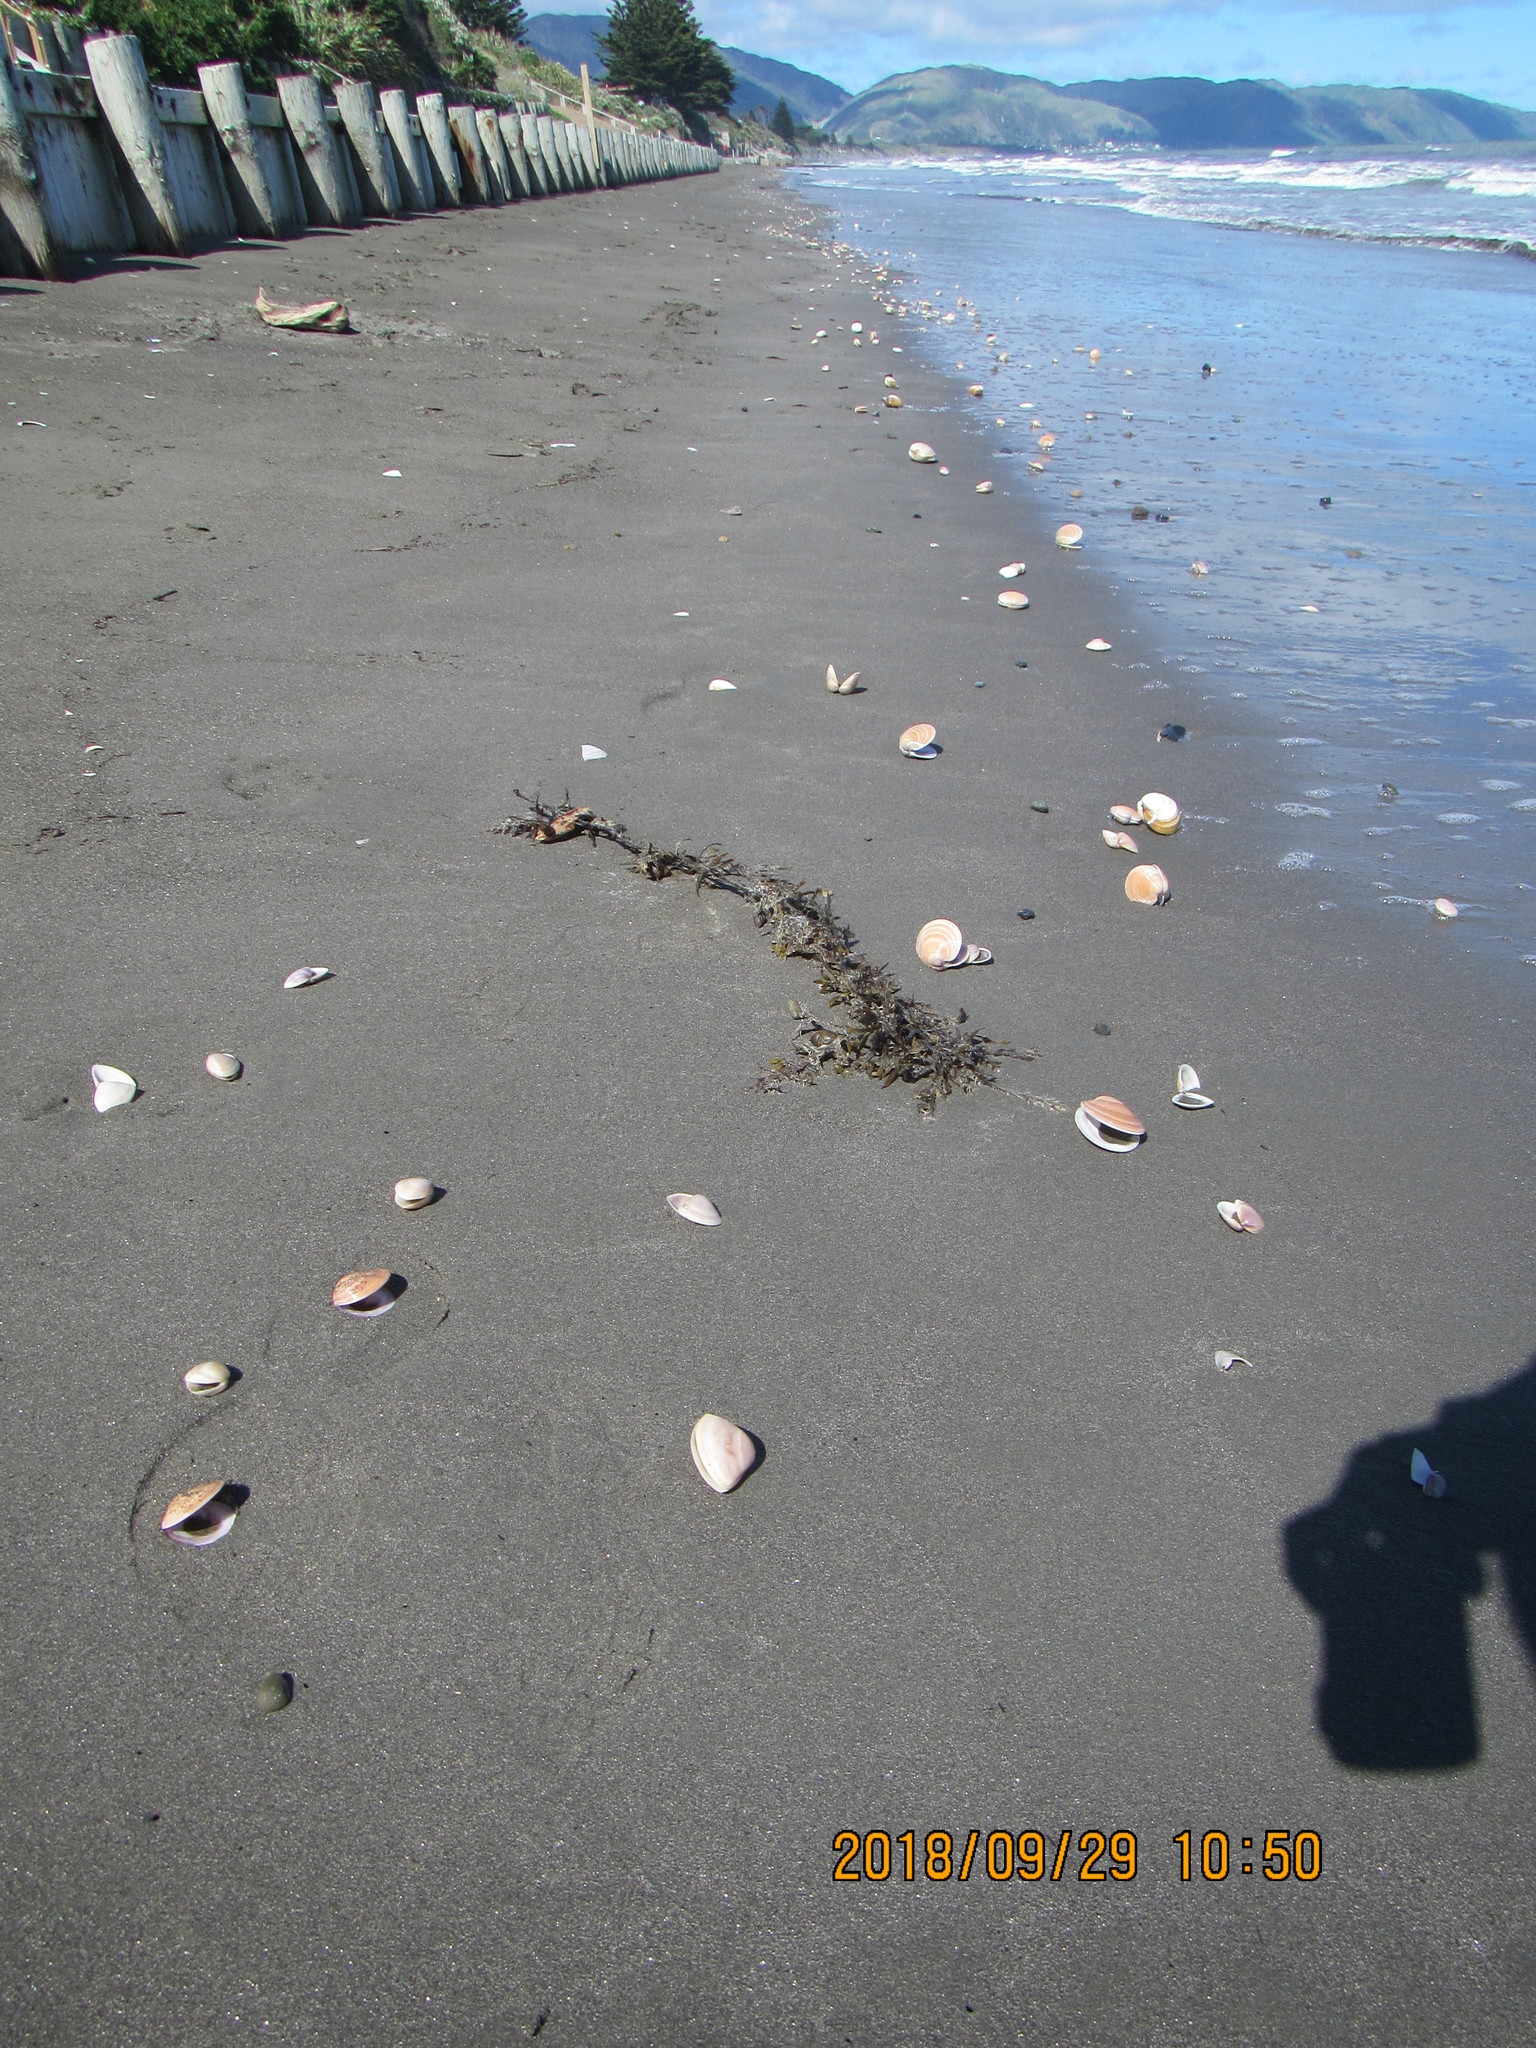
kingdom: Animalia
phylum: Mollusca
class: Bivalvia
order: Venerida
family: Veneridae
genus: Dosinia
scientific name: Dosinia anus
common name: Old-woman dosinia
